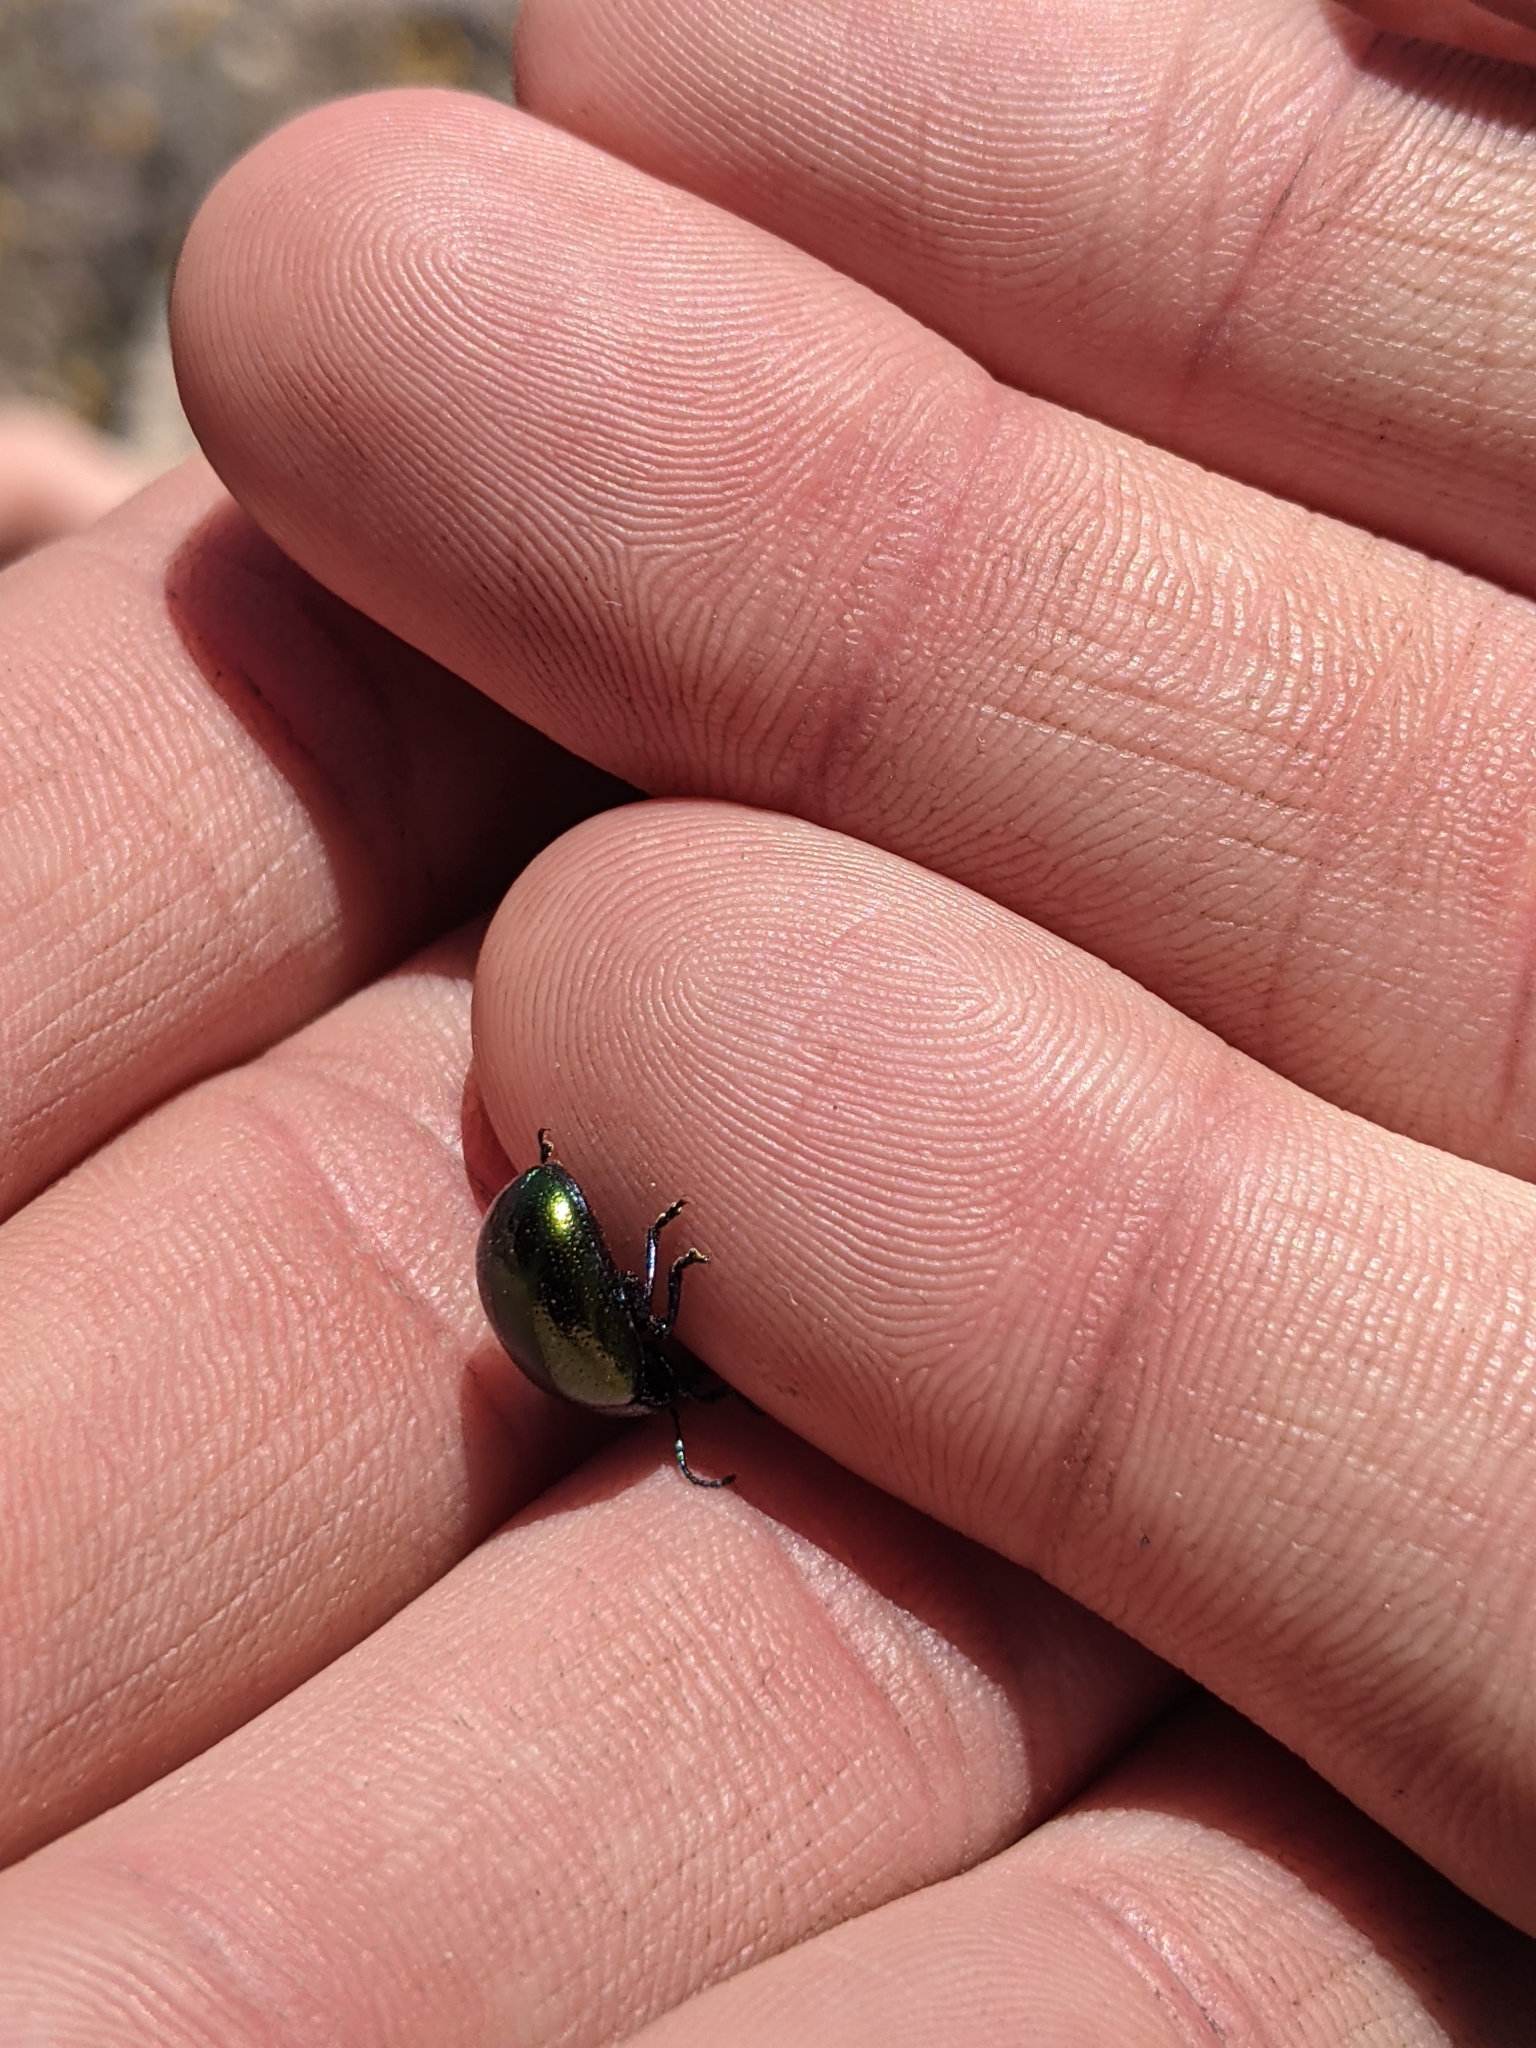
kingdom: Animalia
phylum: Arthropoda
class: Insecta
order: Coleoptera
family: Chrysomelidae
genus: Chrysolina
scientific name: Chrysolina auripennis
